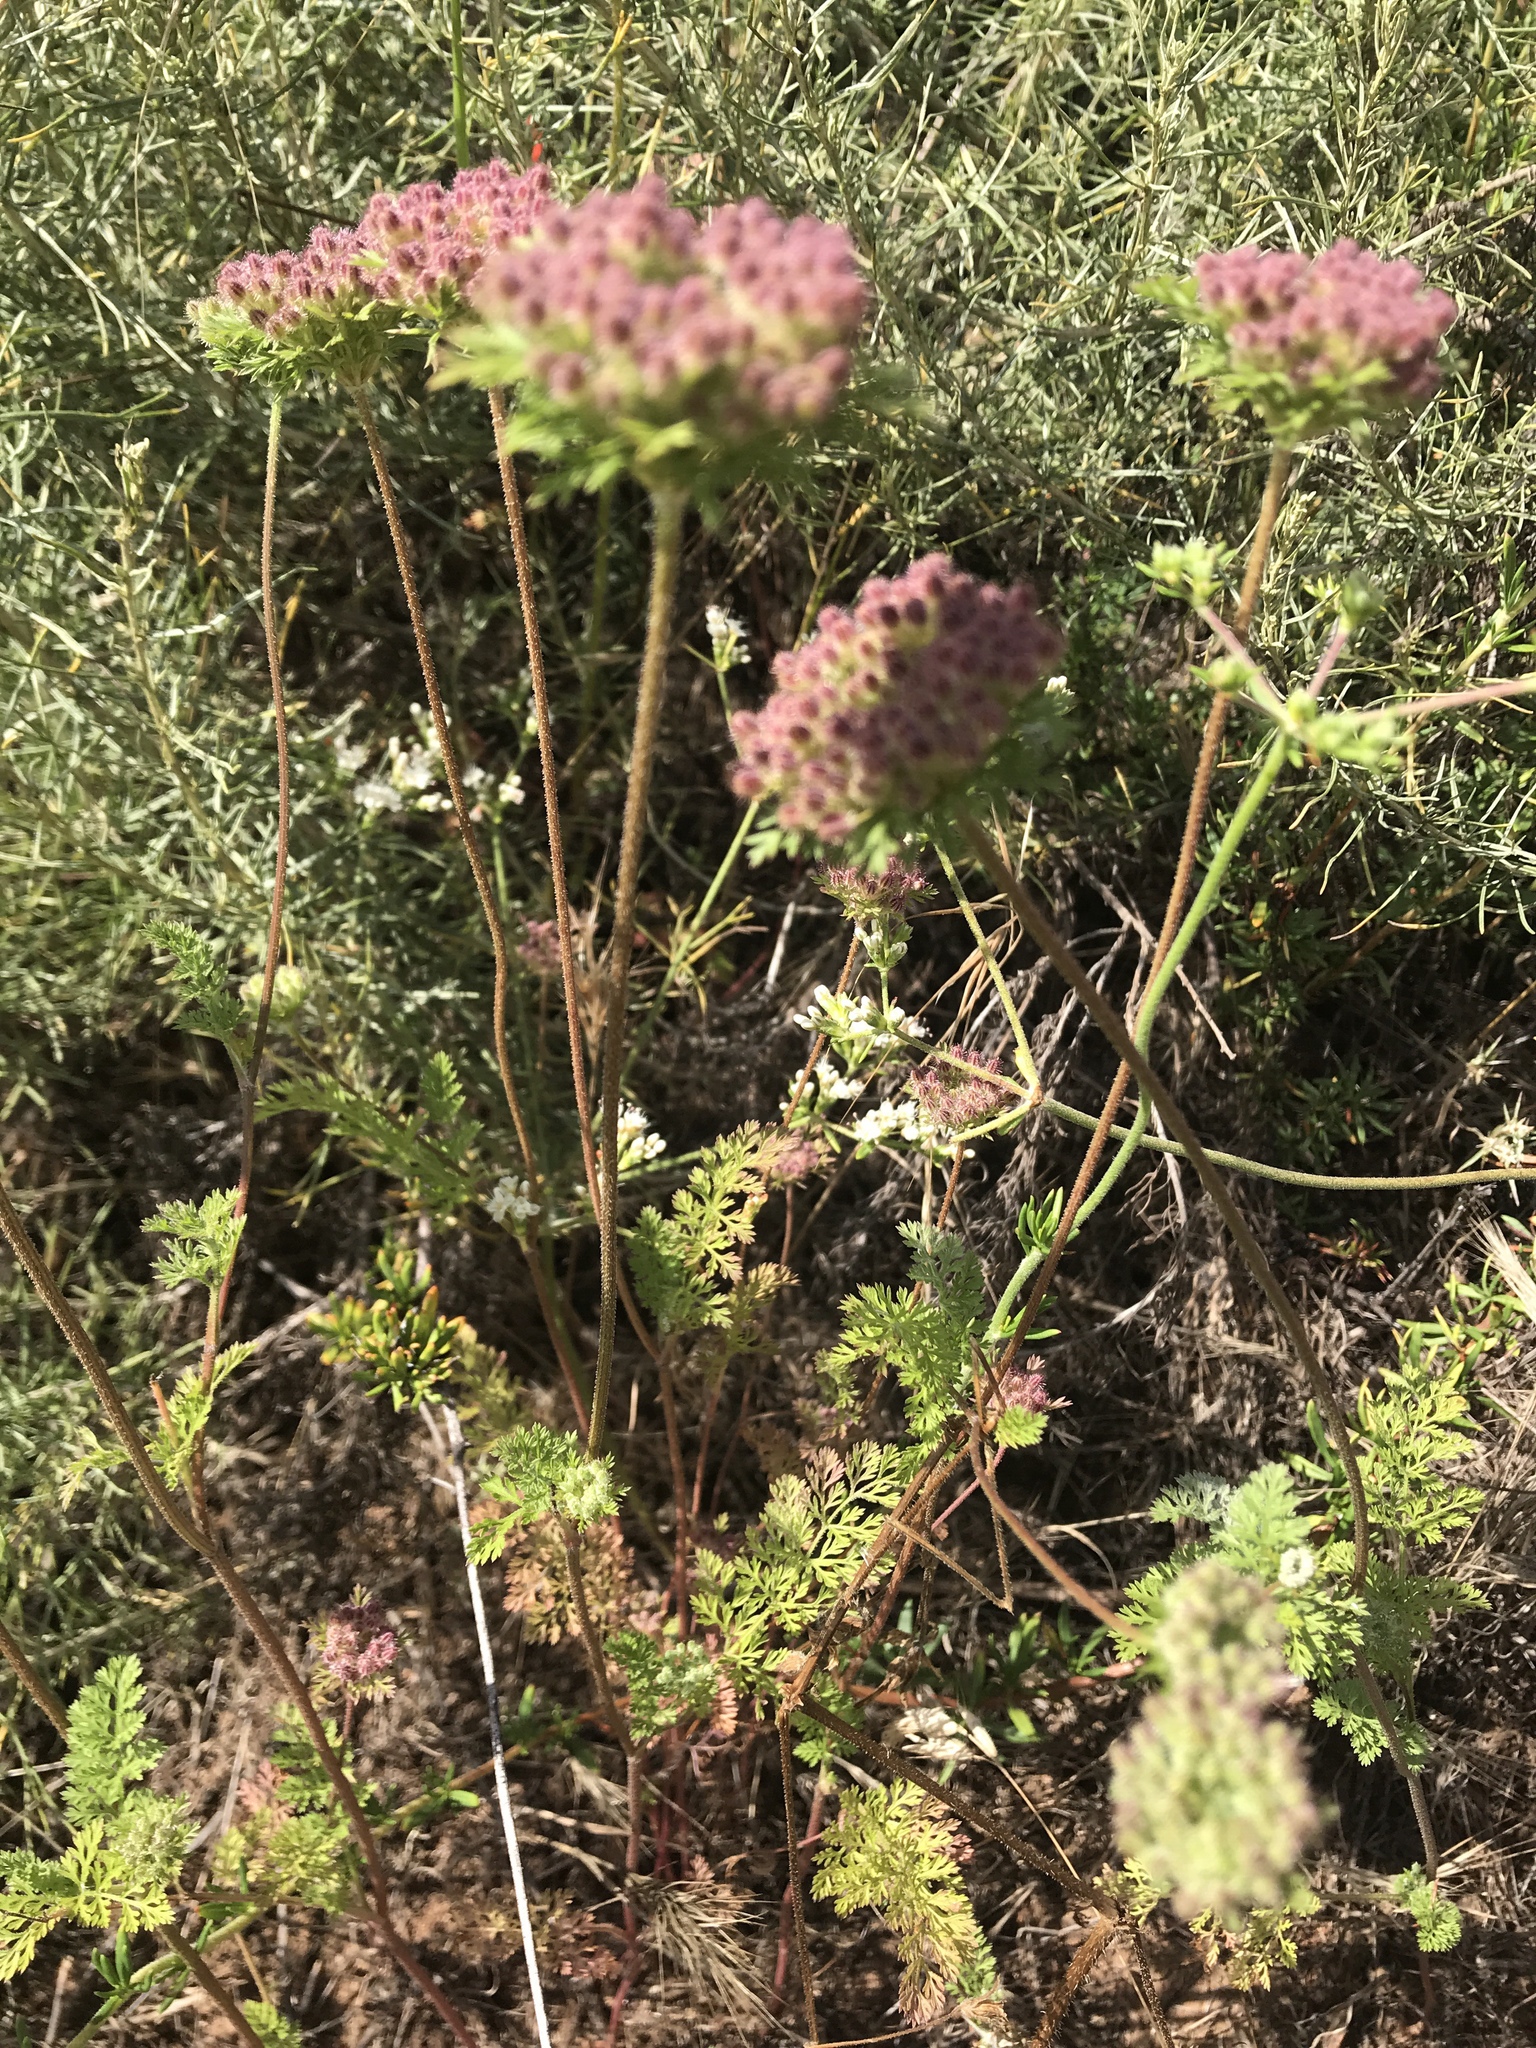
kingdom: Plantae
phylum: Tracheophyta
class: Magnoliopsida
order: Apiales
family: Apiaceae
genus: Daucus
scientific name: Daucus pusillus
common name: Southwest wild carrot
